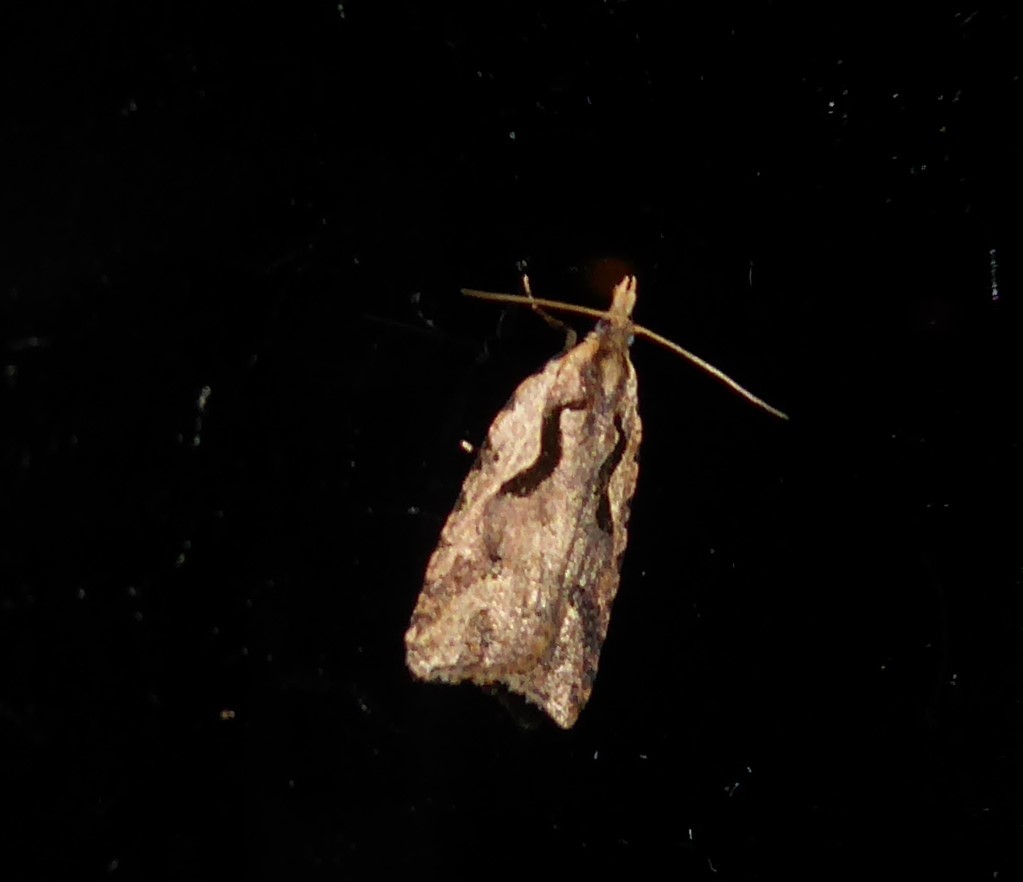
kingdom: Animalia
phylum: Arthropoda
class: Insecta
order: Lepidoptera
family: Tortricidae
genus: Cnephasia
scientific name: Cnephasia jactatana
